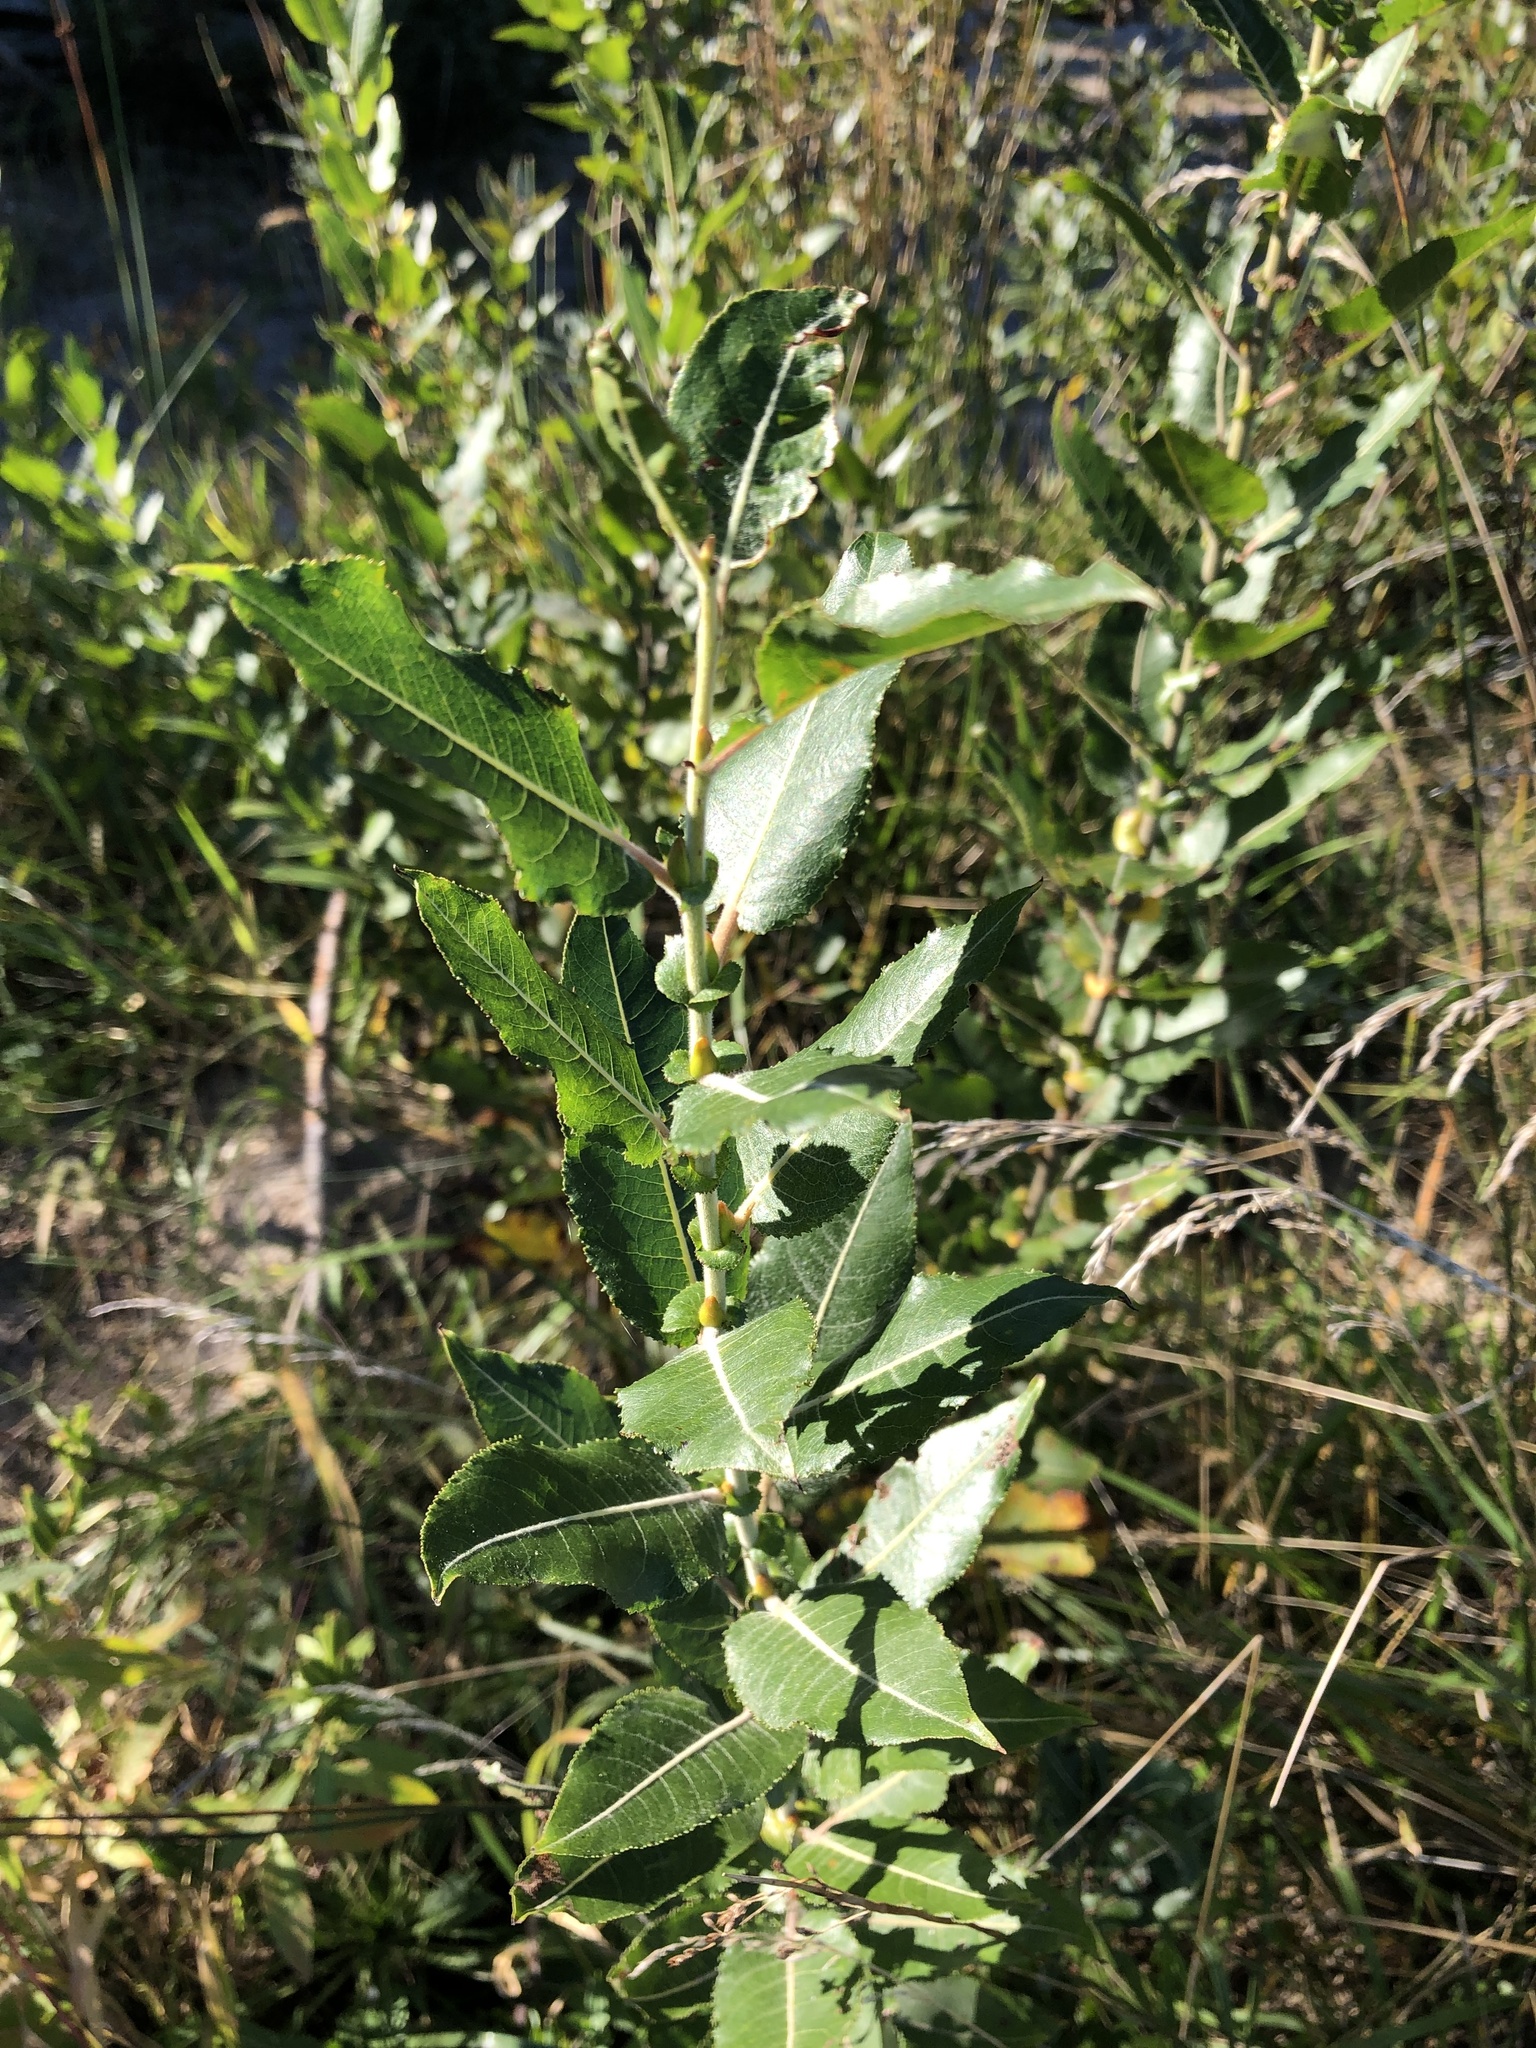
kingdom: Plantae
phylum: Tracheophyta
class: Magnoliopsida
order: Malpighiales
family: Salicaceae
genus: Salix
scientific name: Salix cordata
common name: Heart-leaf willow
